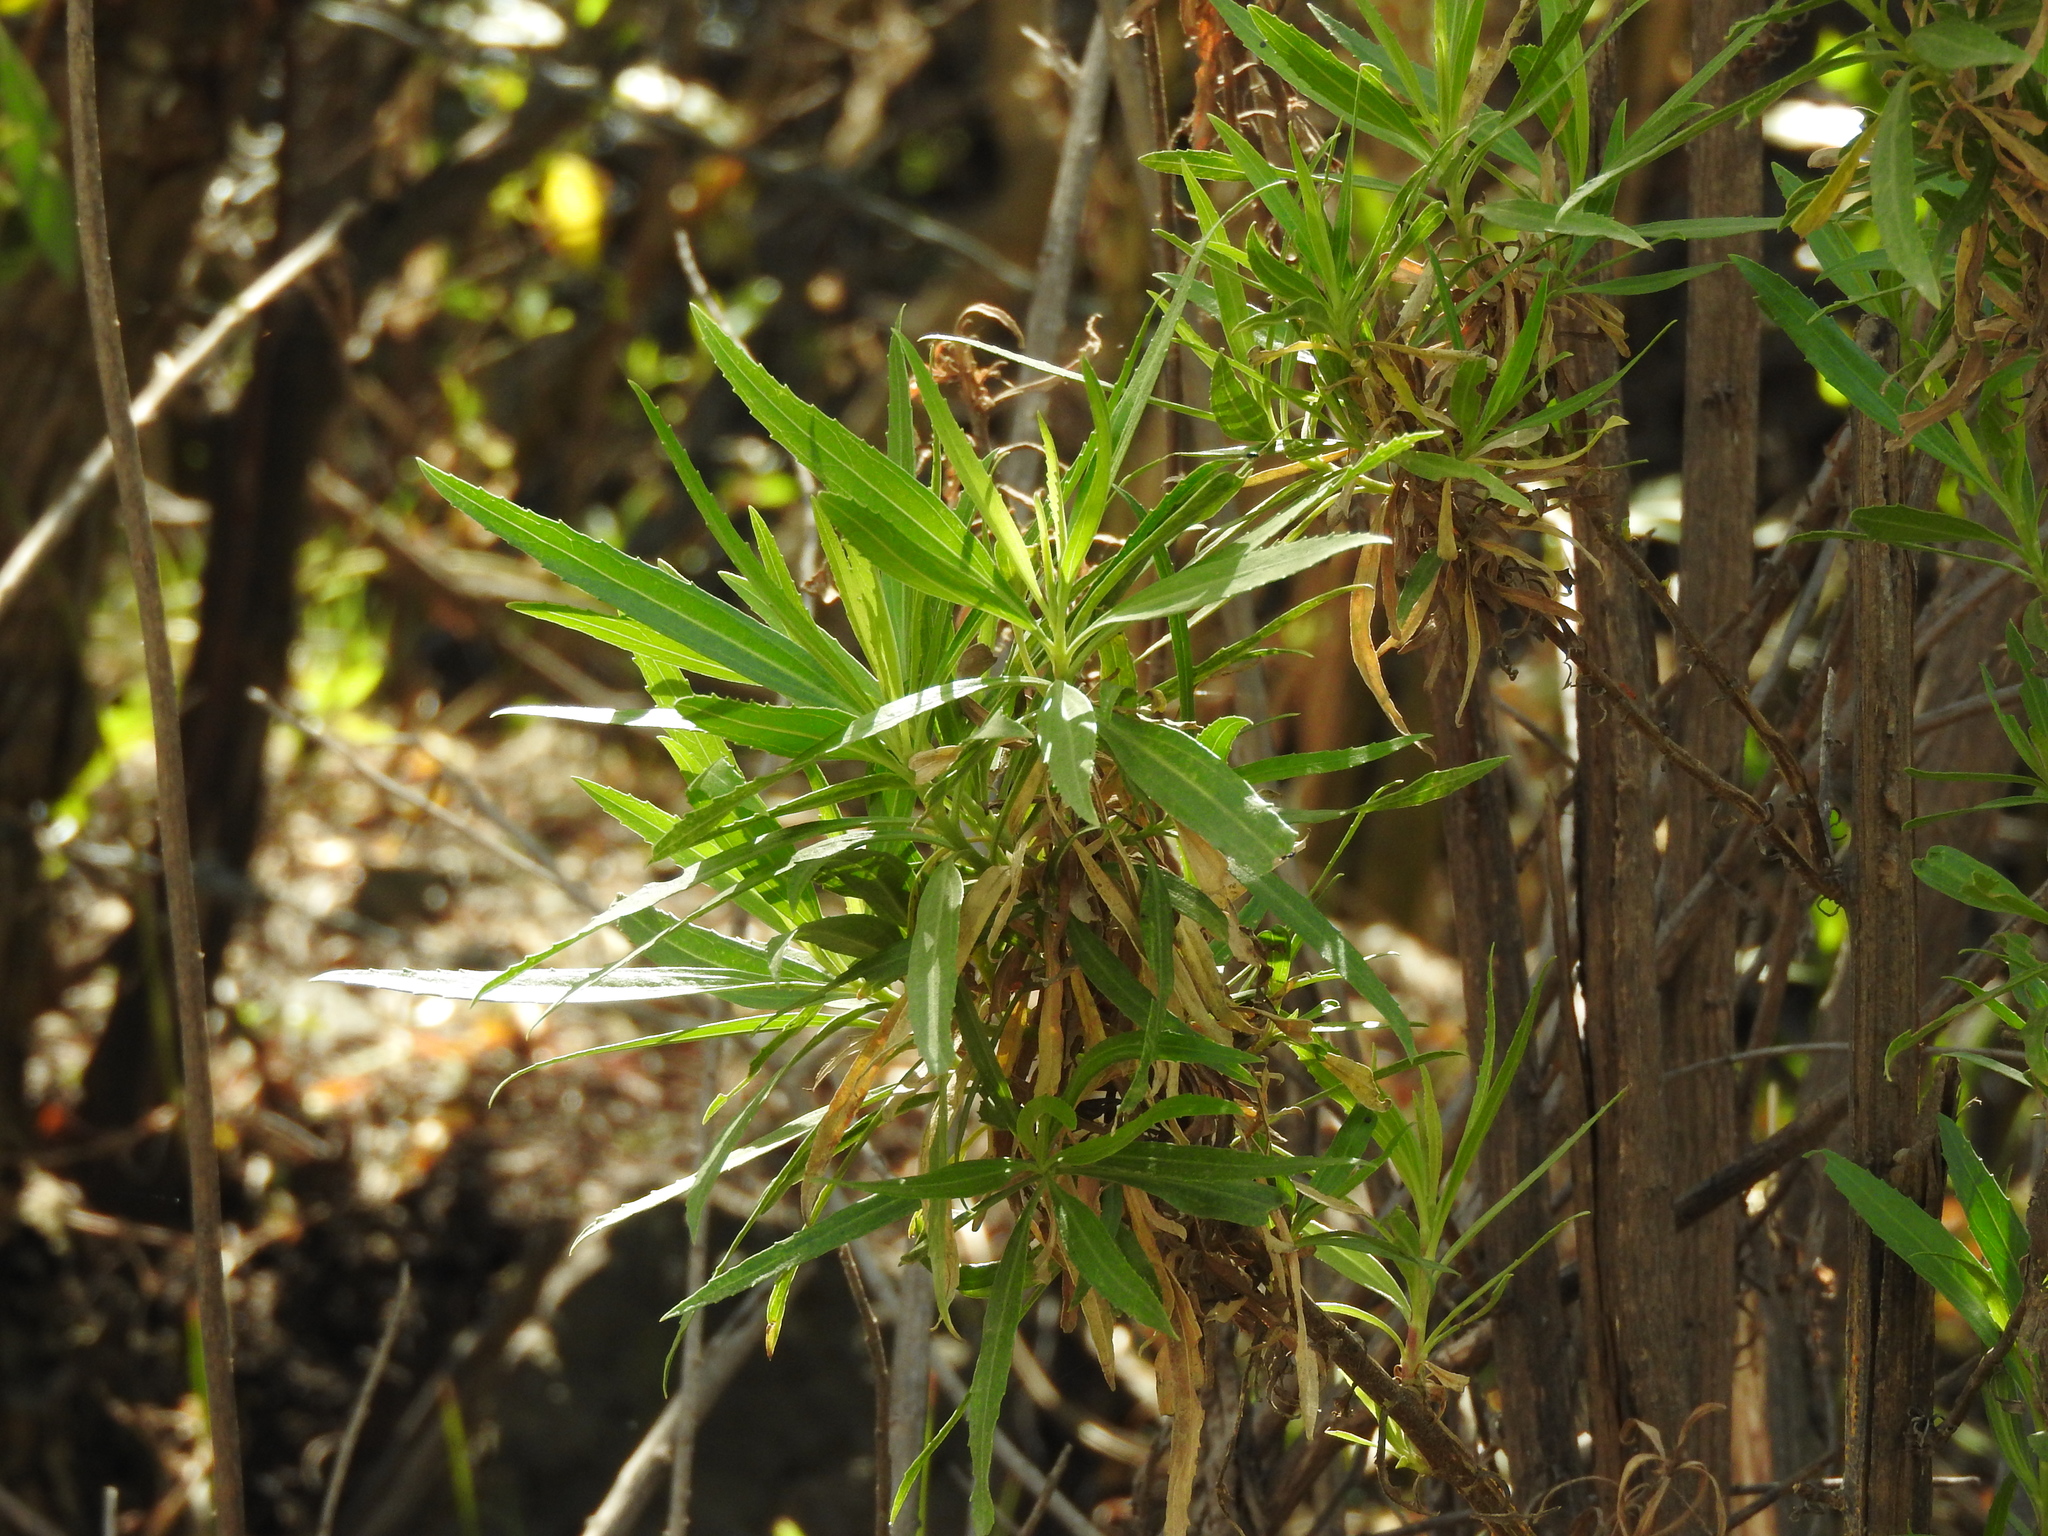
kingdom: Plantae
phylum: Tracheophyta
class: Magnoliopsida
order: Asterales
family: Asteraceae
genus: Barkleyanthus
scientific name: Barkleyanthus salicifolius
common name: Willow ragwort
